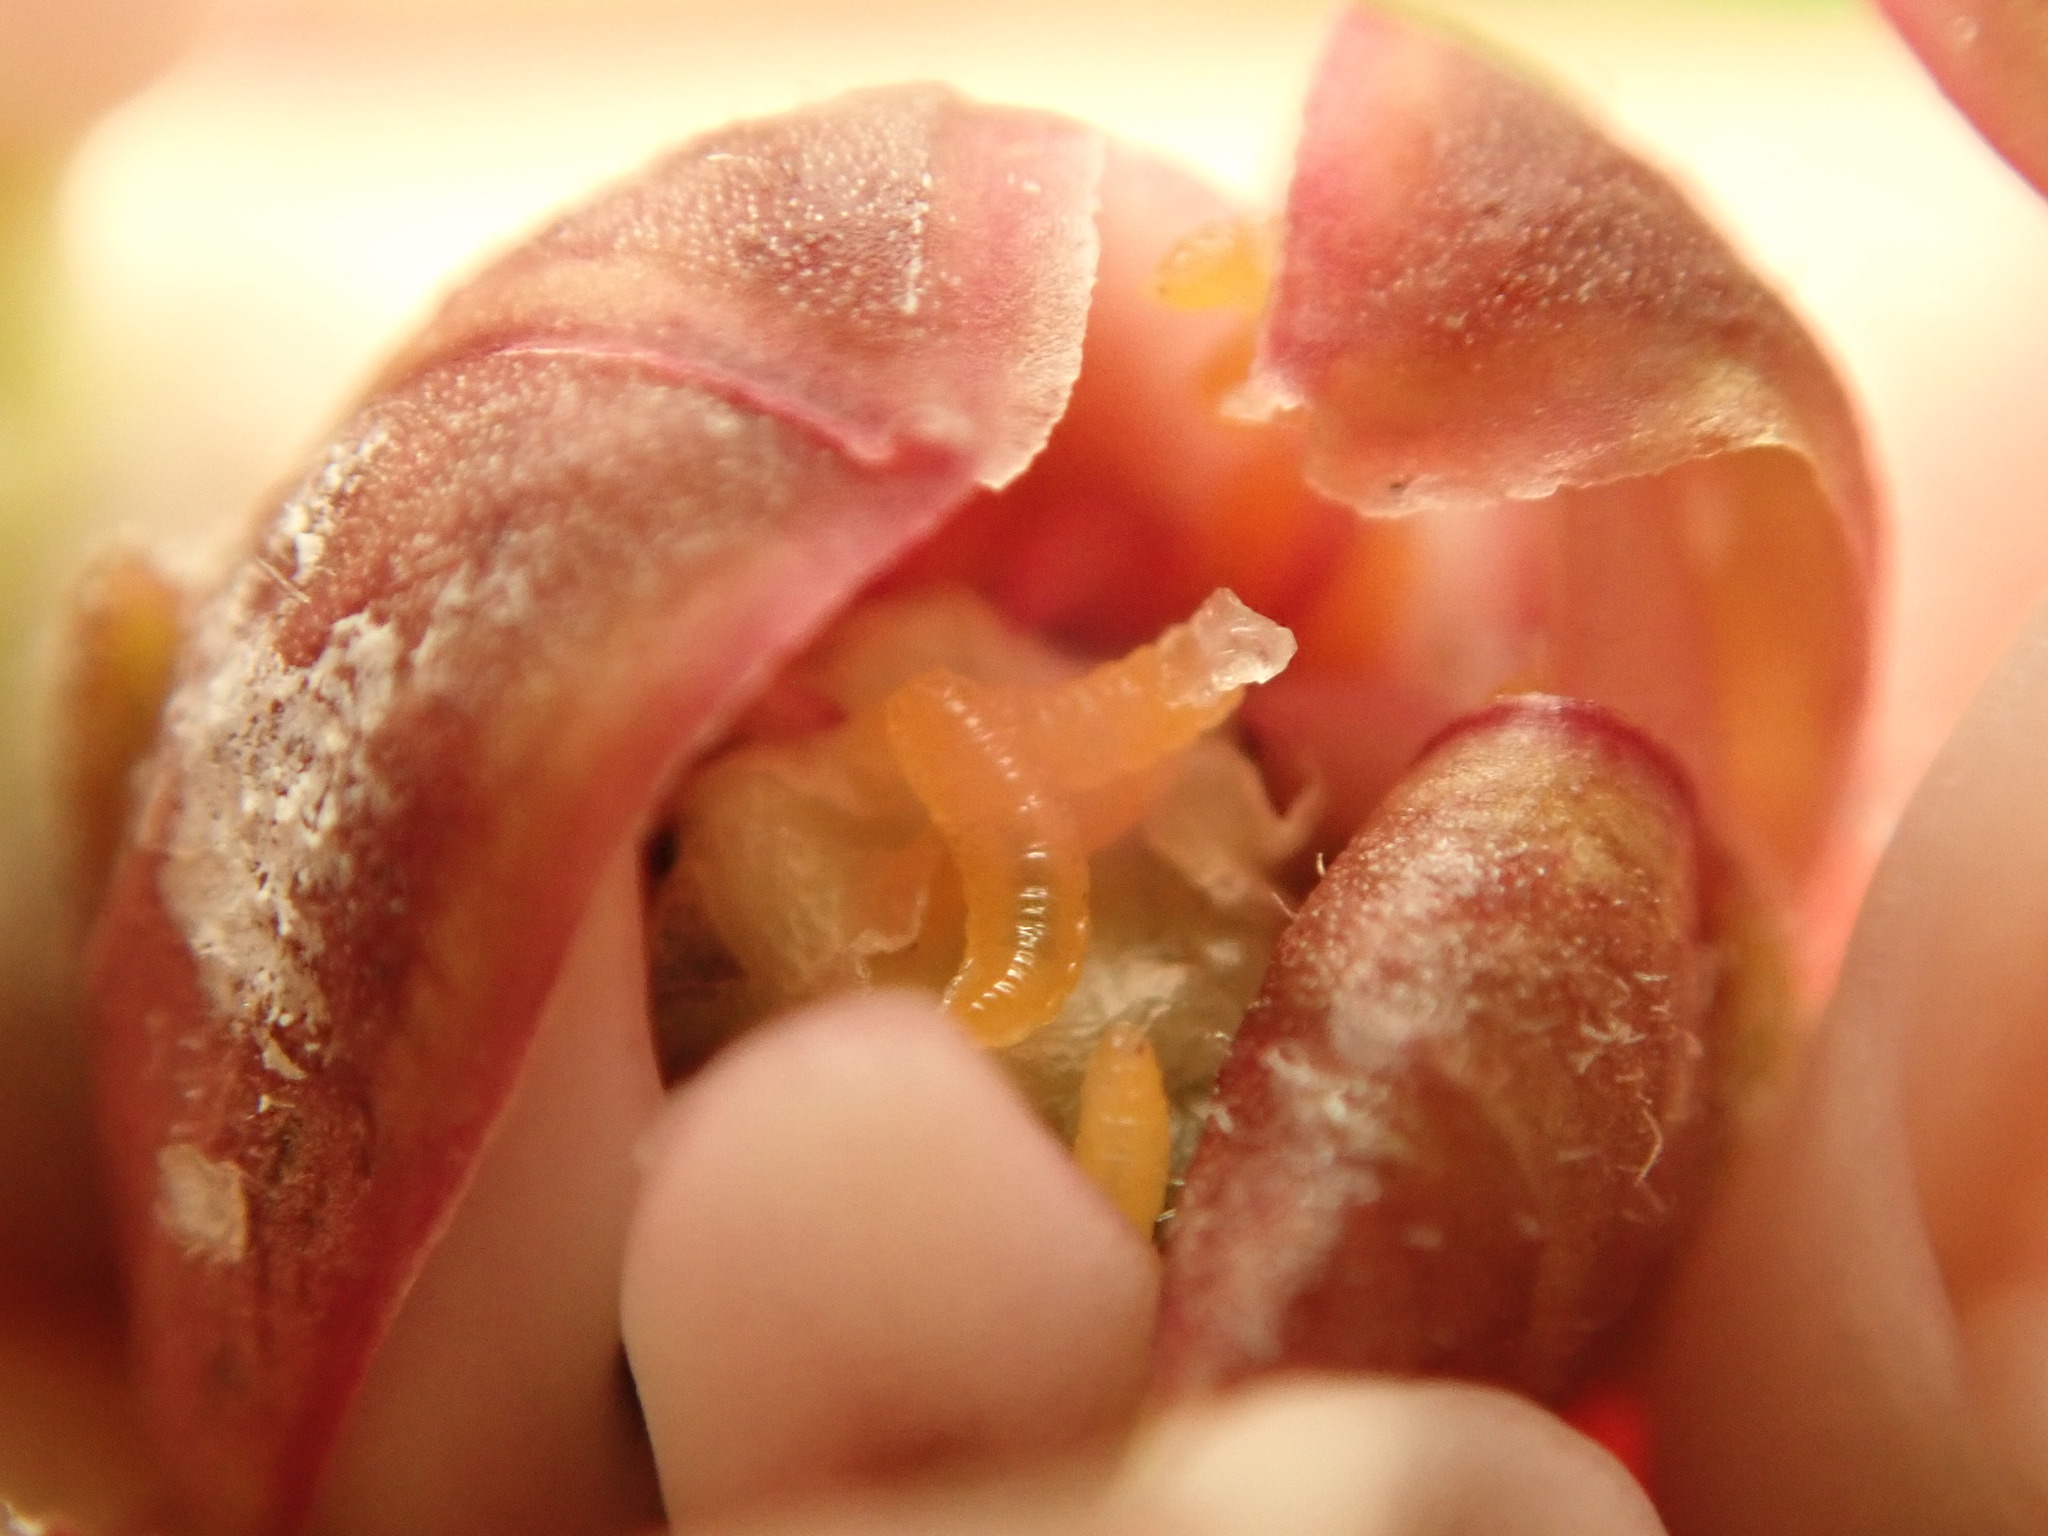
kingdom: Animalia
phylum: Arthropoda
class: Insecta
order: Diptera
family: Cecidomyiidae
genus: Prodiplosis
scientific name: Prodiplosis floricola
